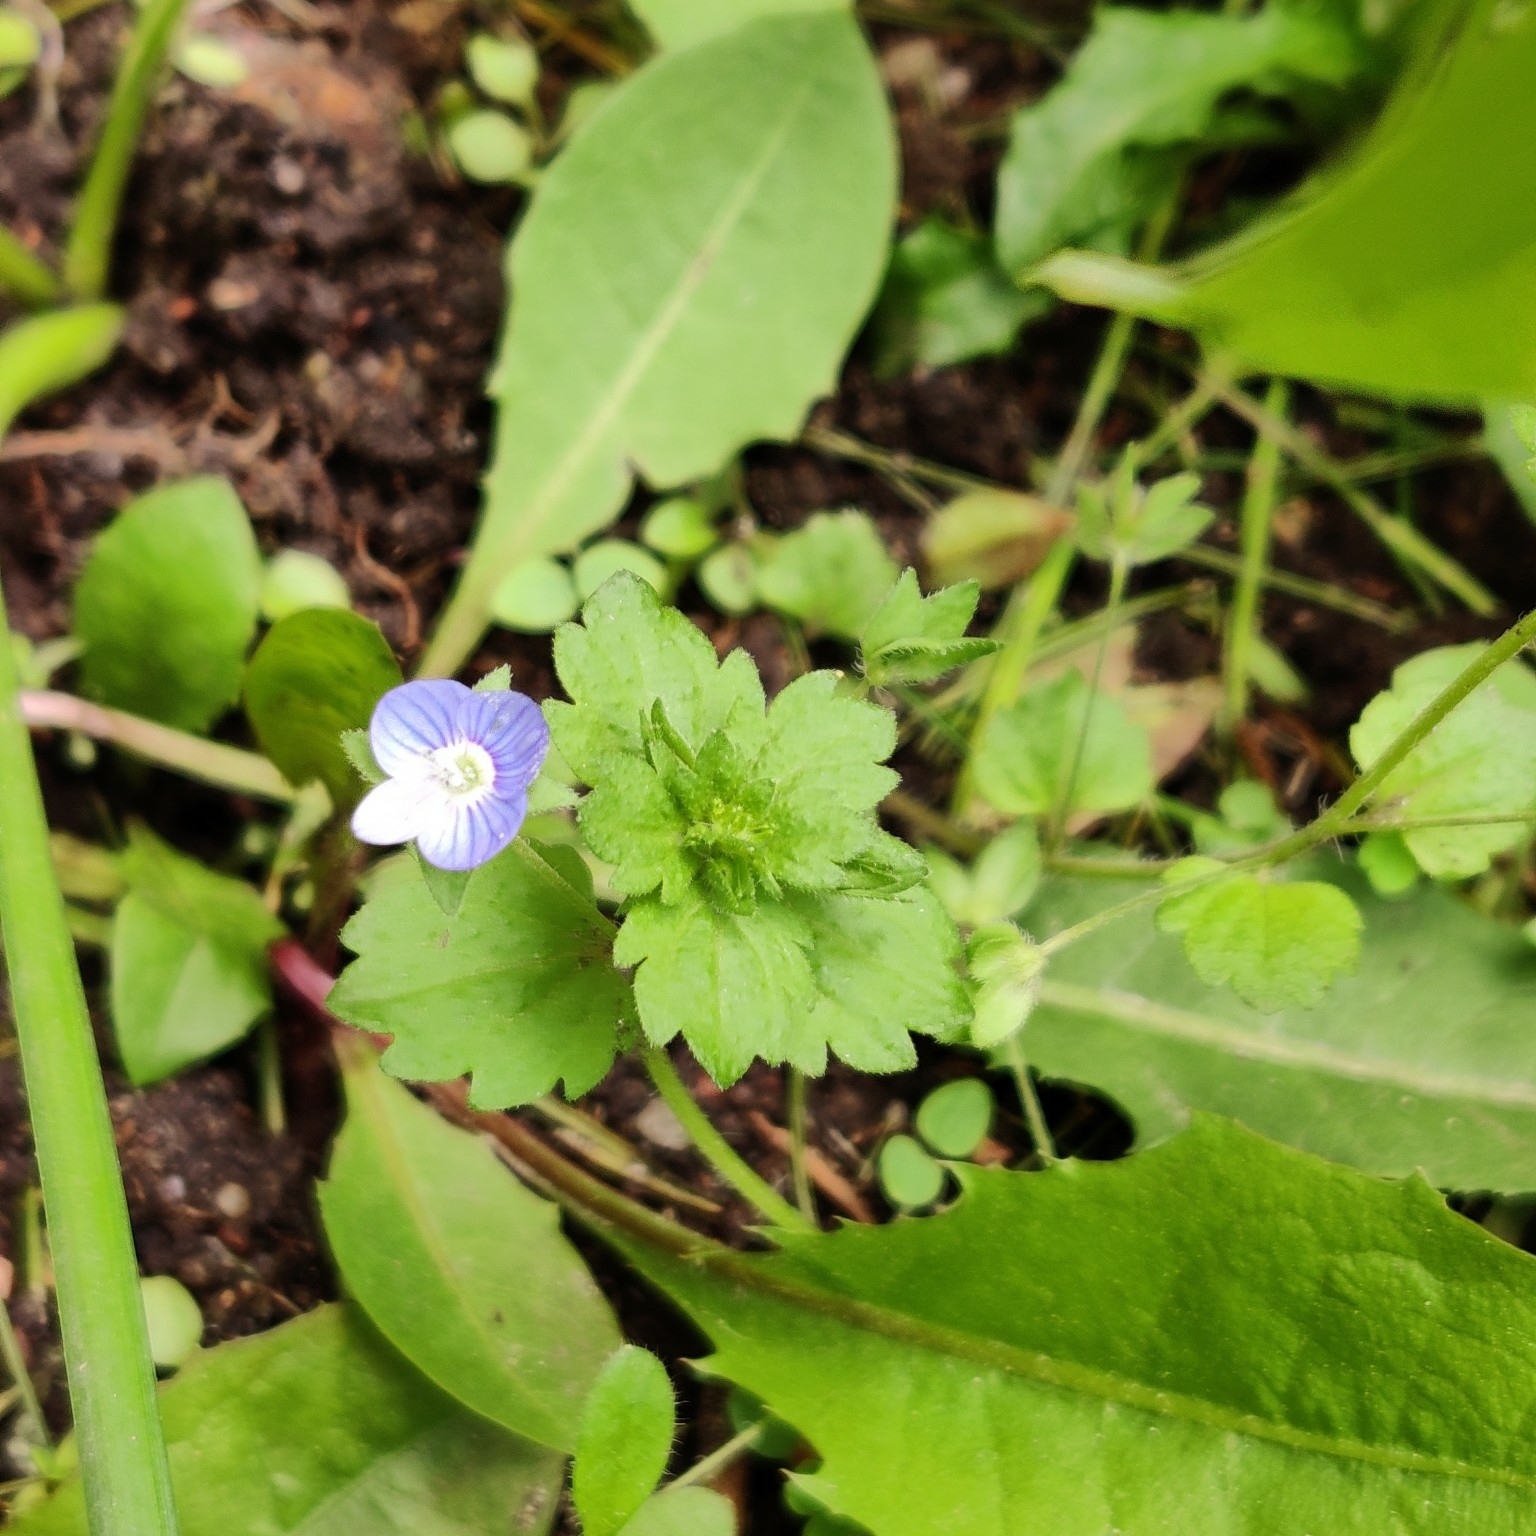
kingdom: Plantae
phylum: Tracheophyta
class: Magnoliopsida
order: Lamiales
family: Plantaginaceae
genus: Veronica
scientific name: Veronica persica
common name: Common field-speedwell
